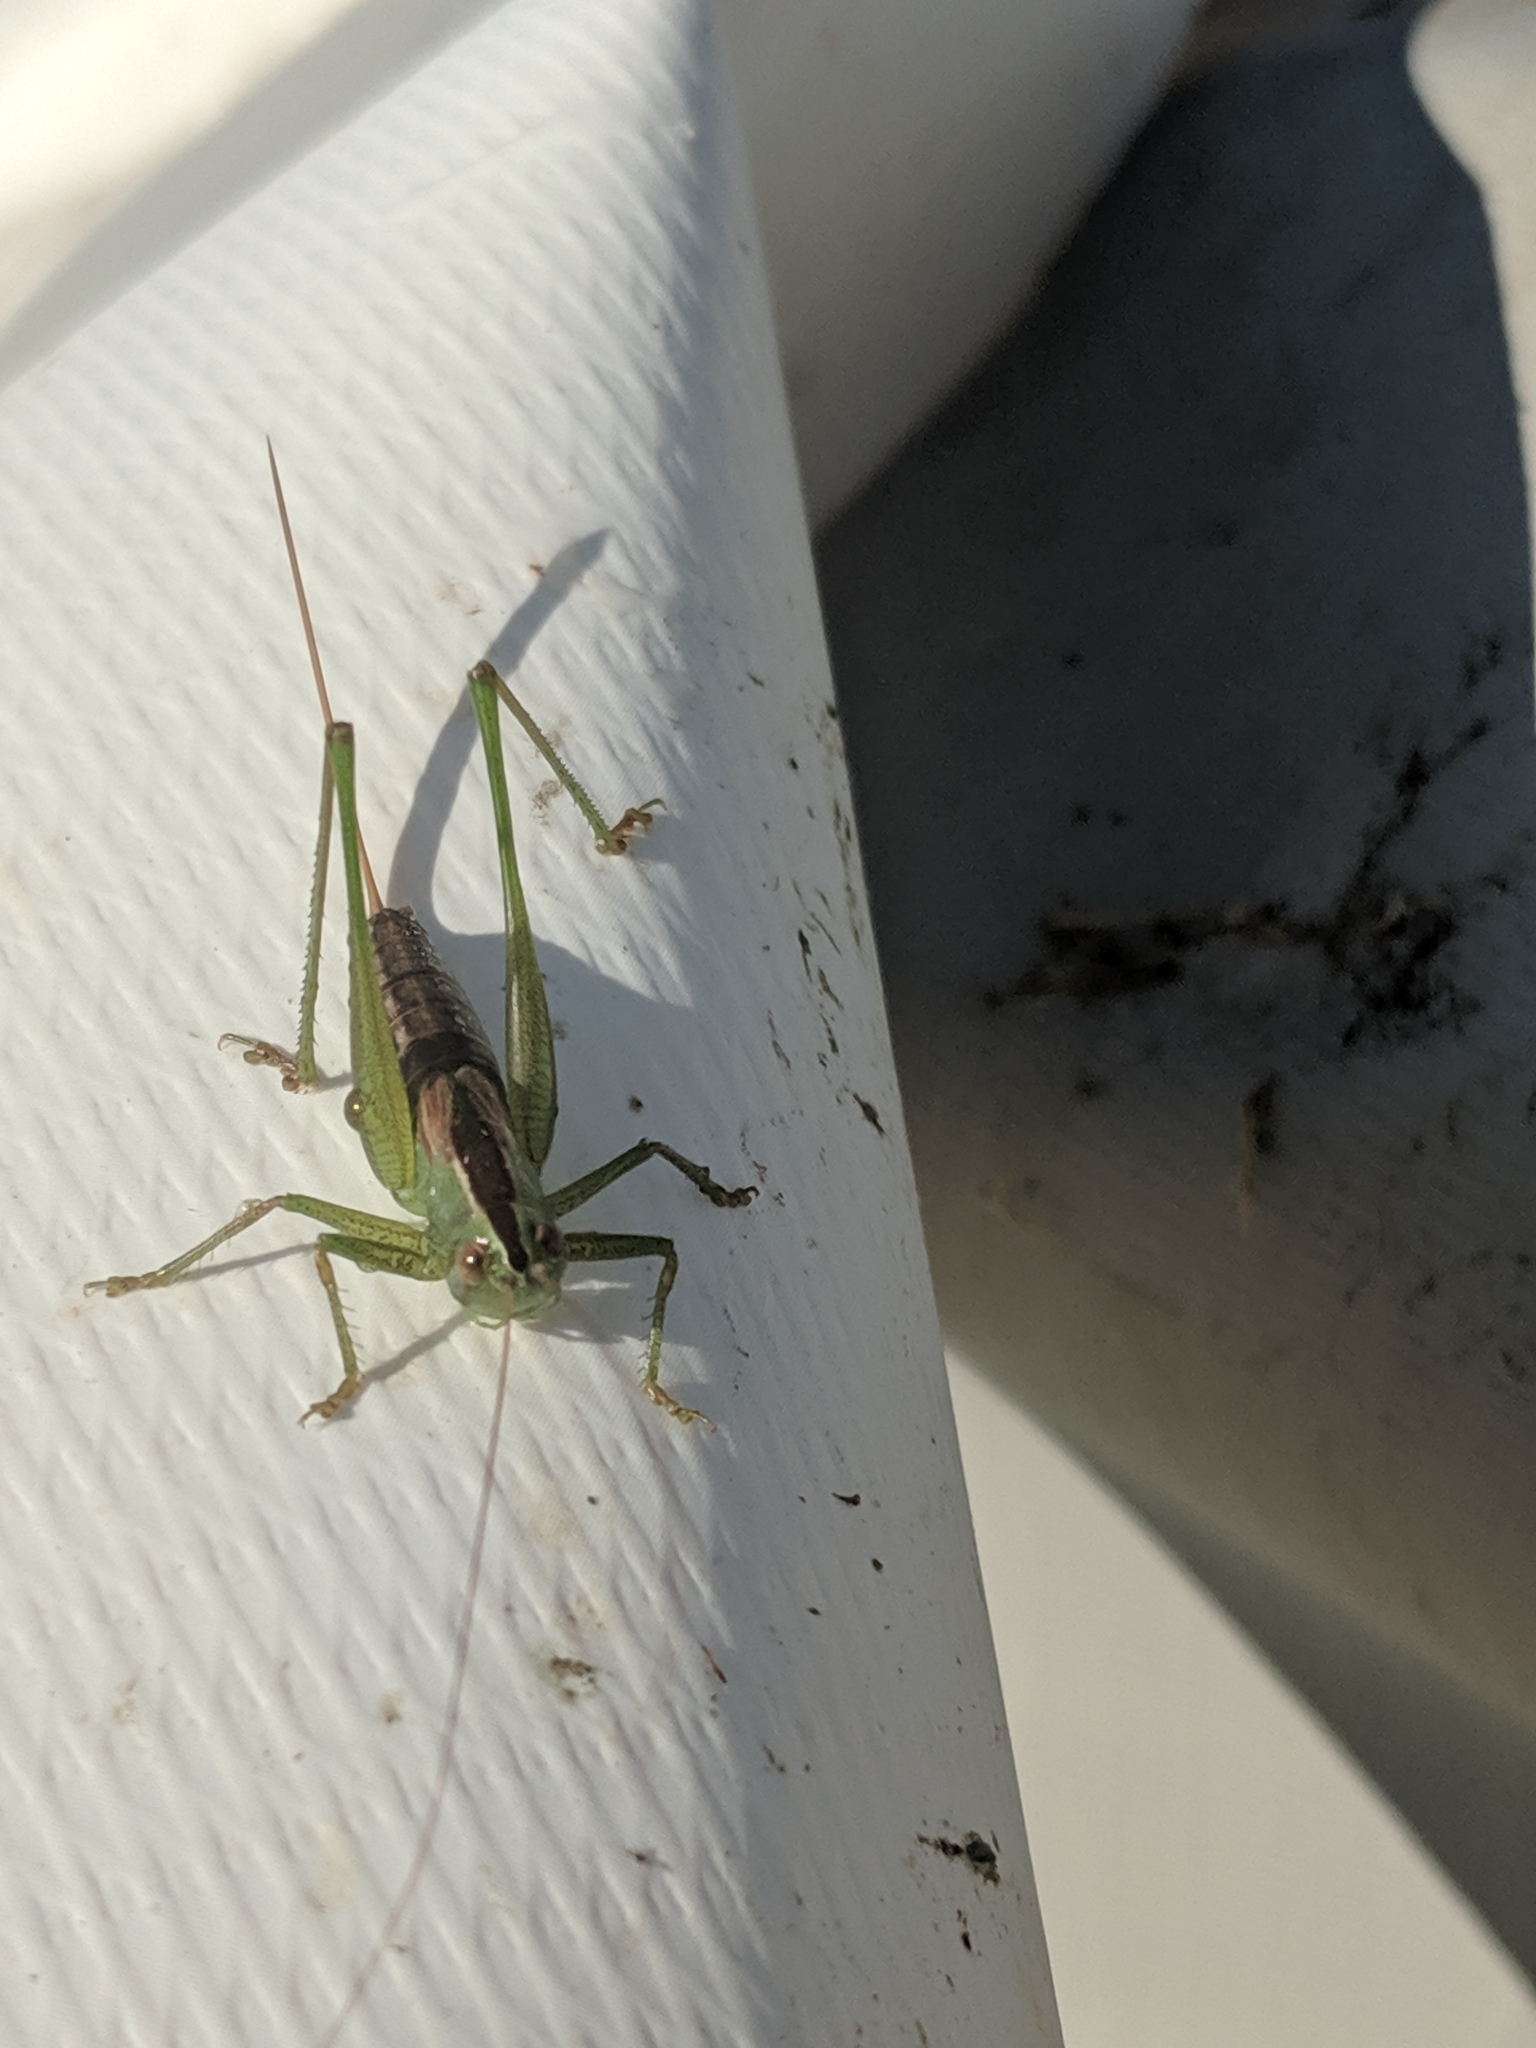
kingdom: Animalia
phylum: Arthropoda
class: Insecta
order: Orthoptera
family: Tettigoniidae
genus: Conocephalus
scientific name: Conocephalus strictus
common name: Straight-lanced katydid
